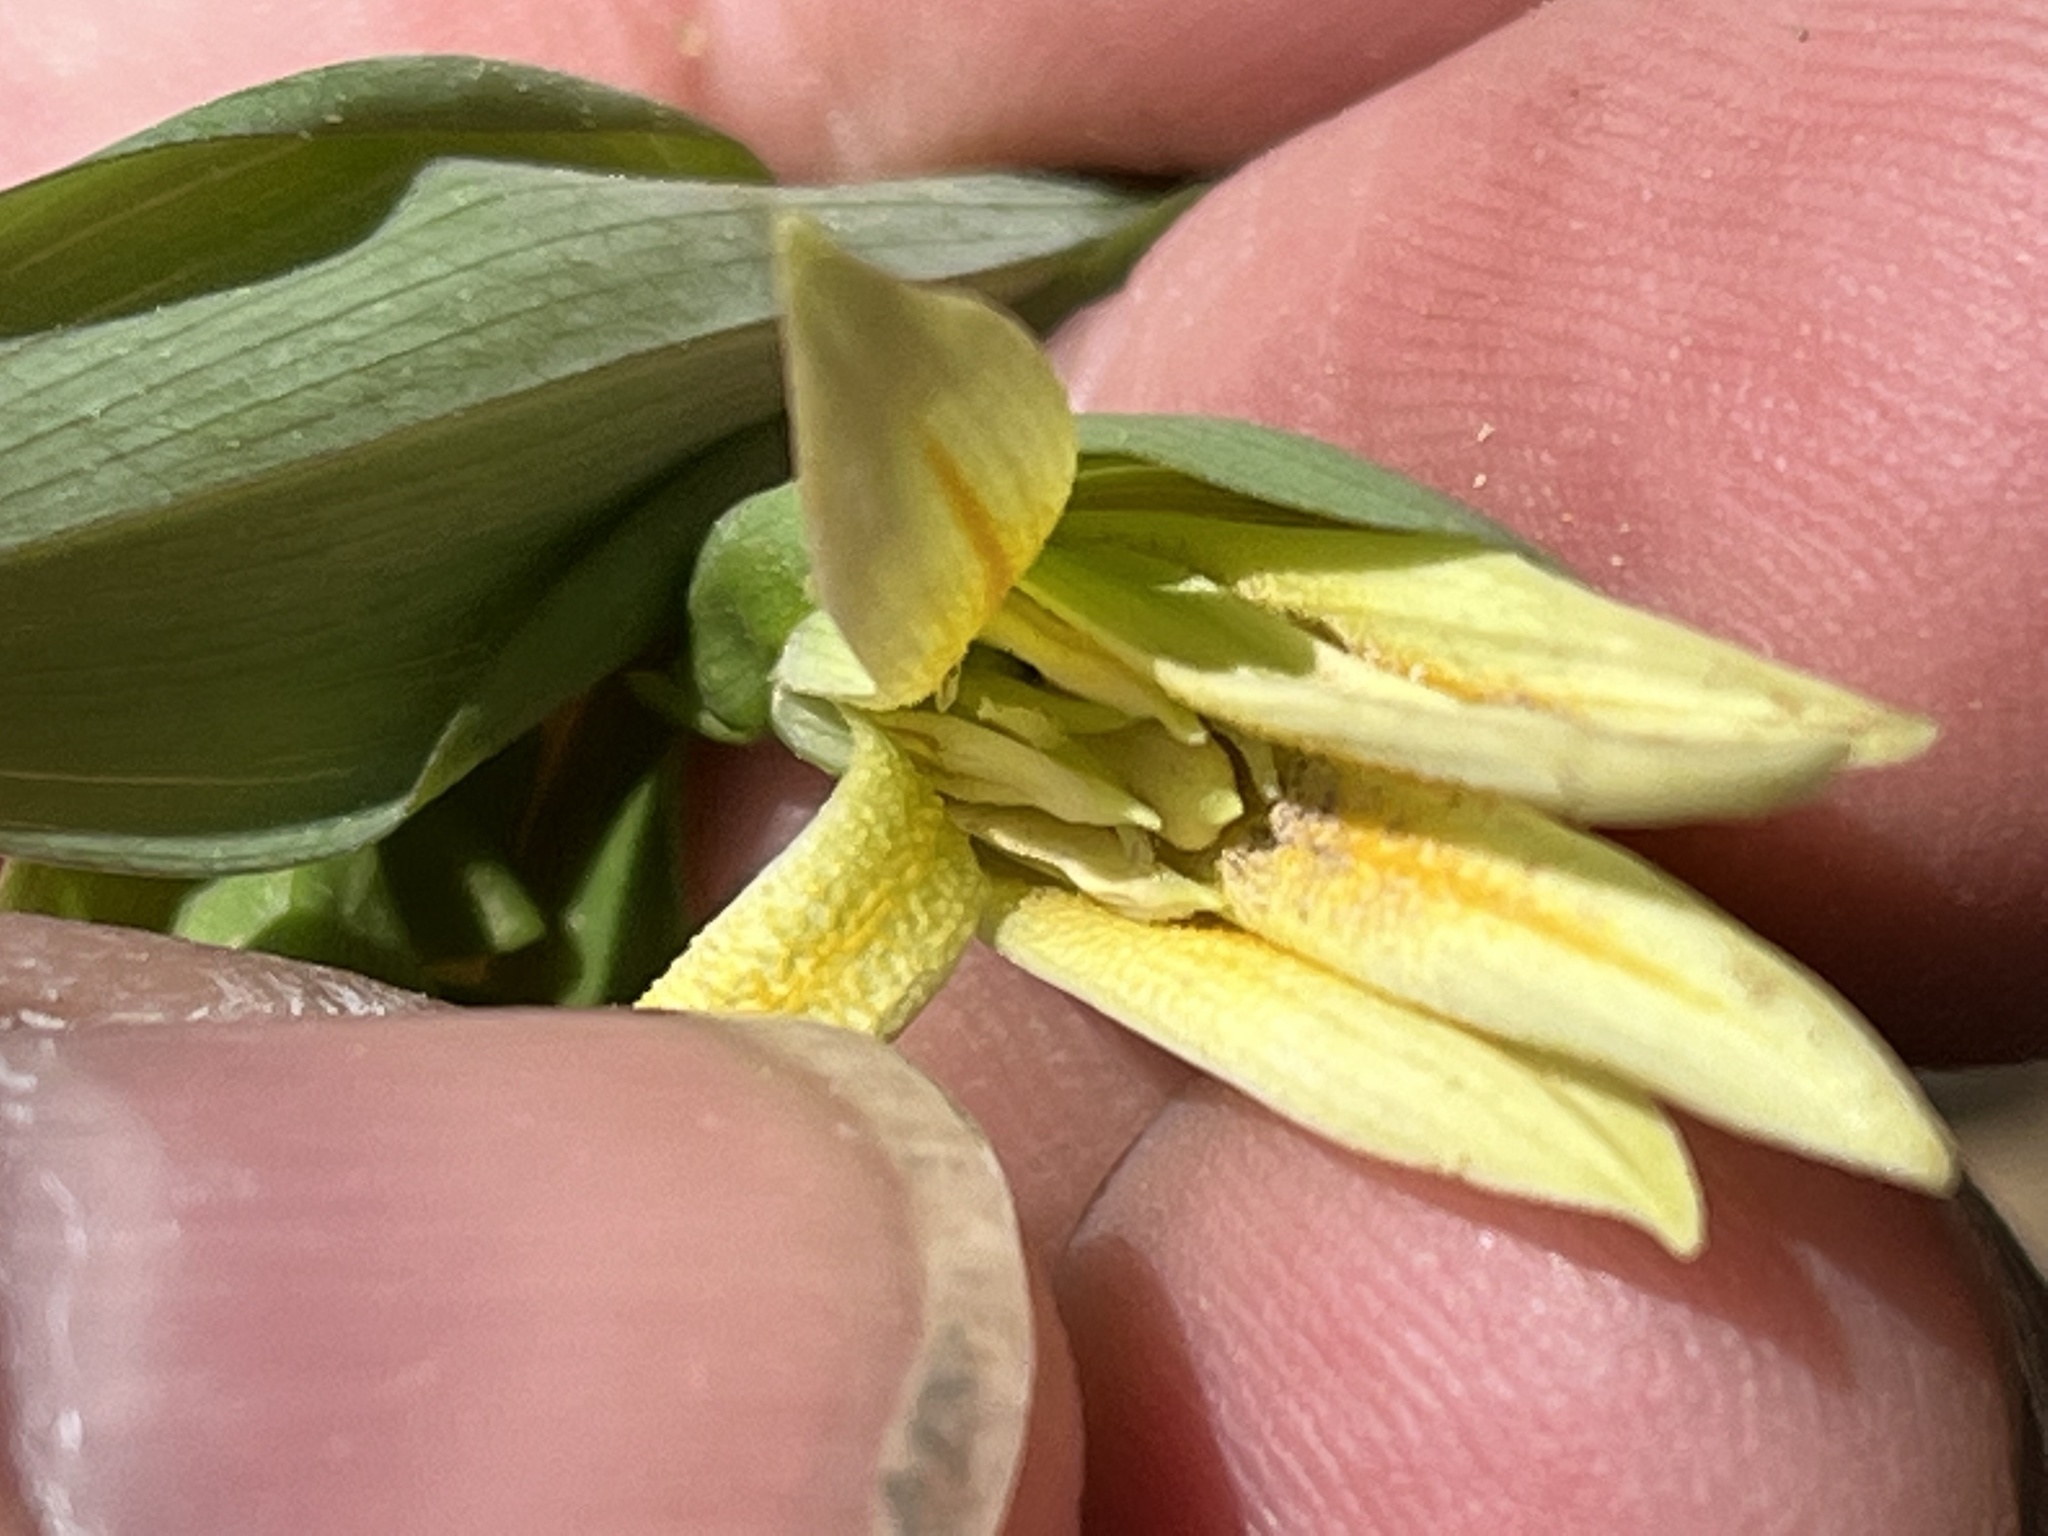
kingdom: Plantae
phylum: Tracheophyta
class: Liliopsida
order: Liliales
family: Colchicaceae
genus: Uvularia
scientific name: Uvularia perfoliata
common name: Perfoliate bellwort
